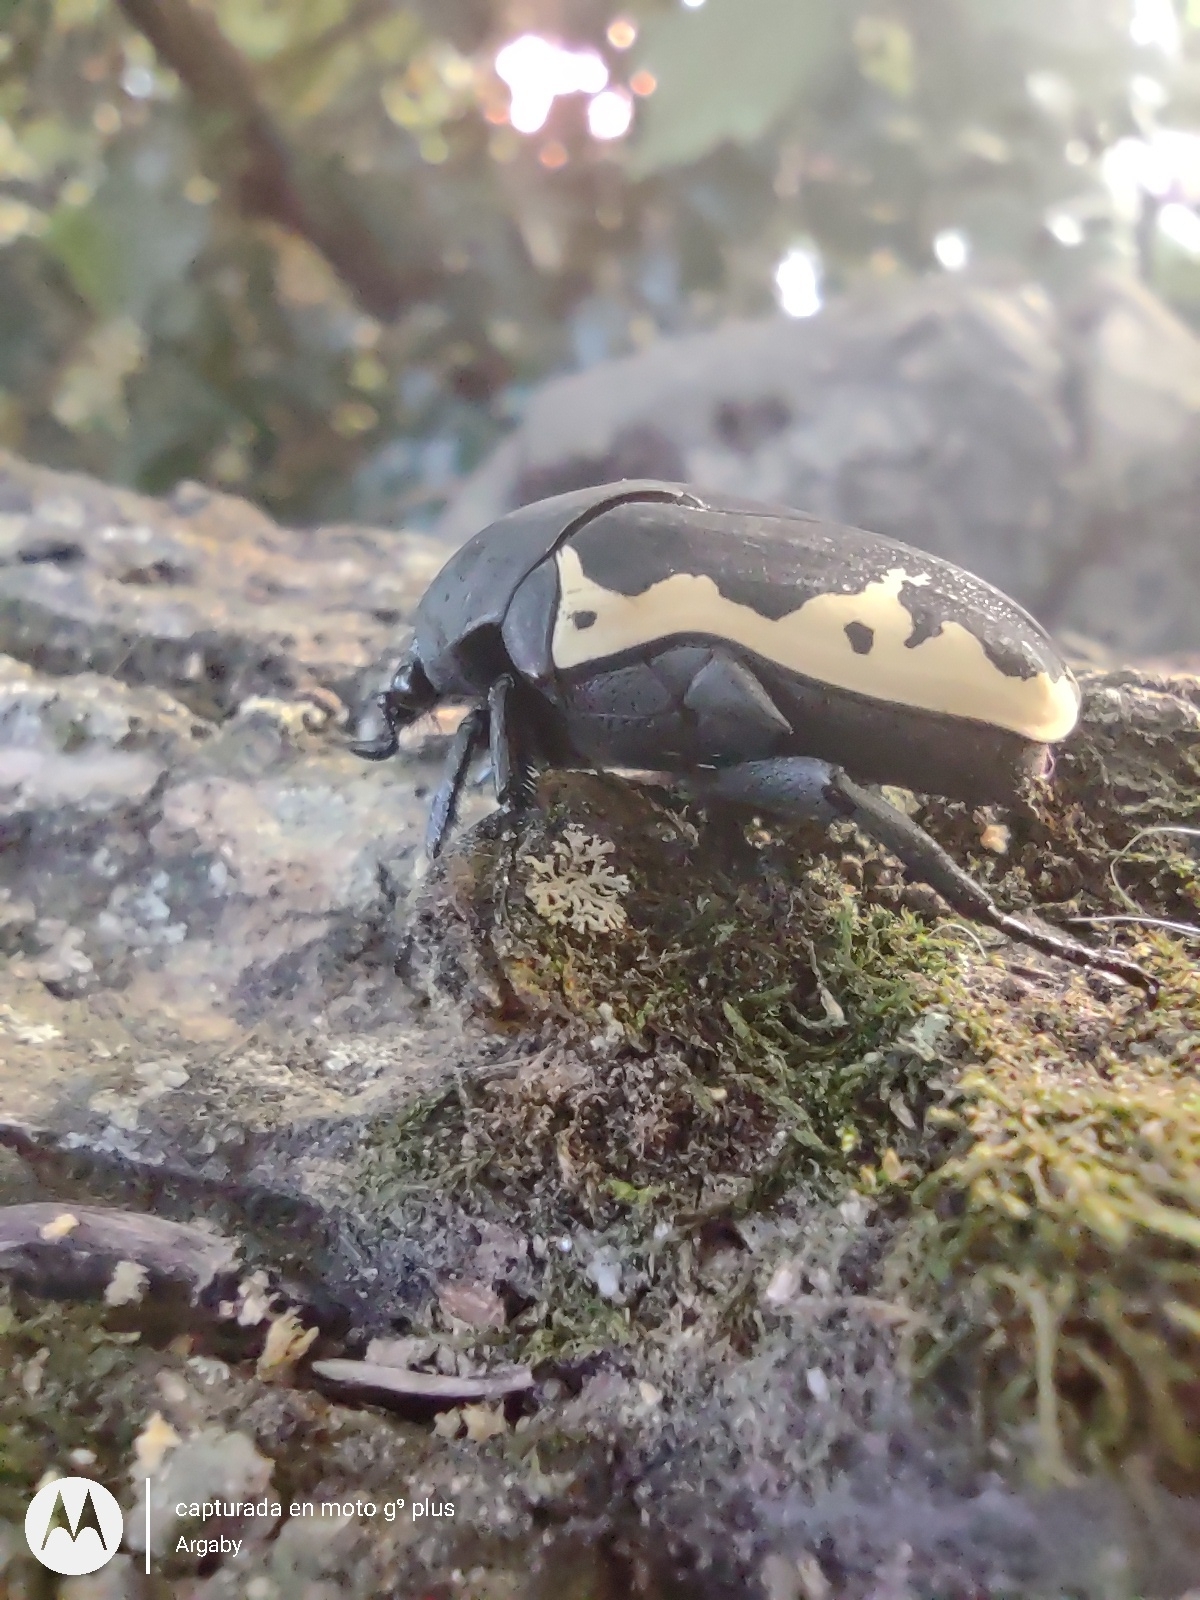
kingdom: Animalia
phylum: Arthropoda
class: Insecta
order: Coleoptera
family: Scarabaeidae
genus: Gymnetis
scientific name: Gymnetis pudibunda
